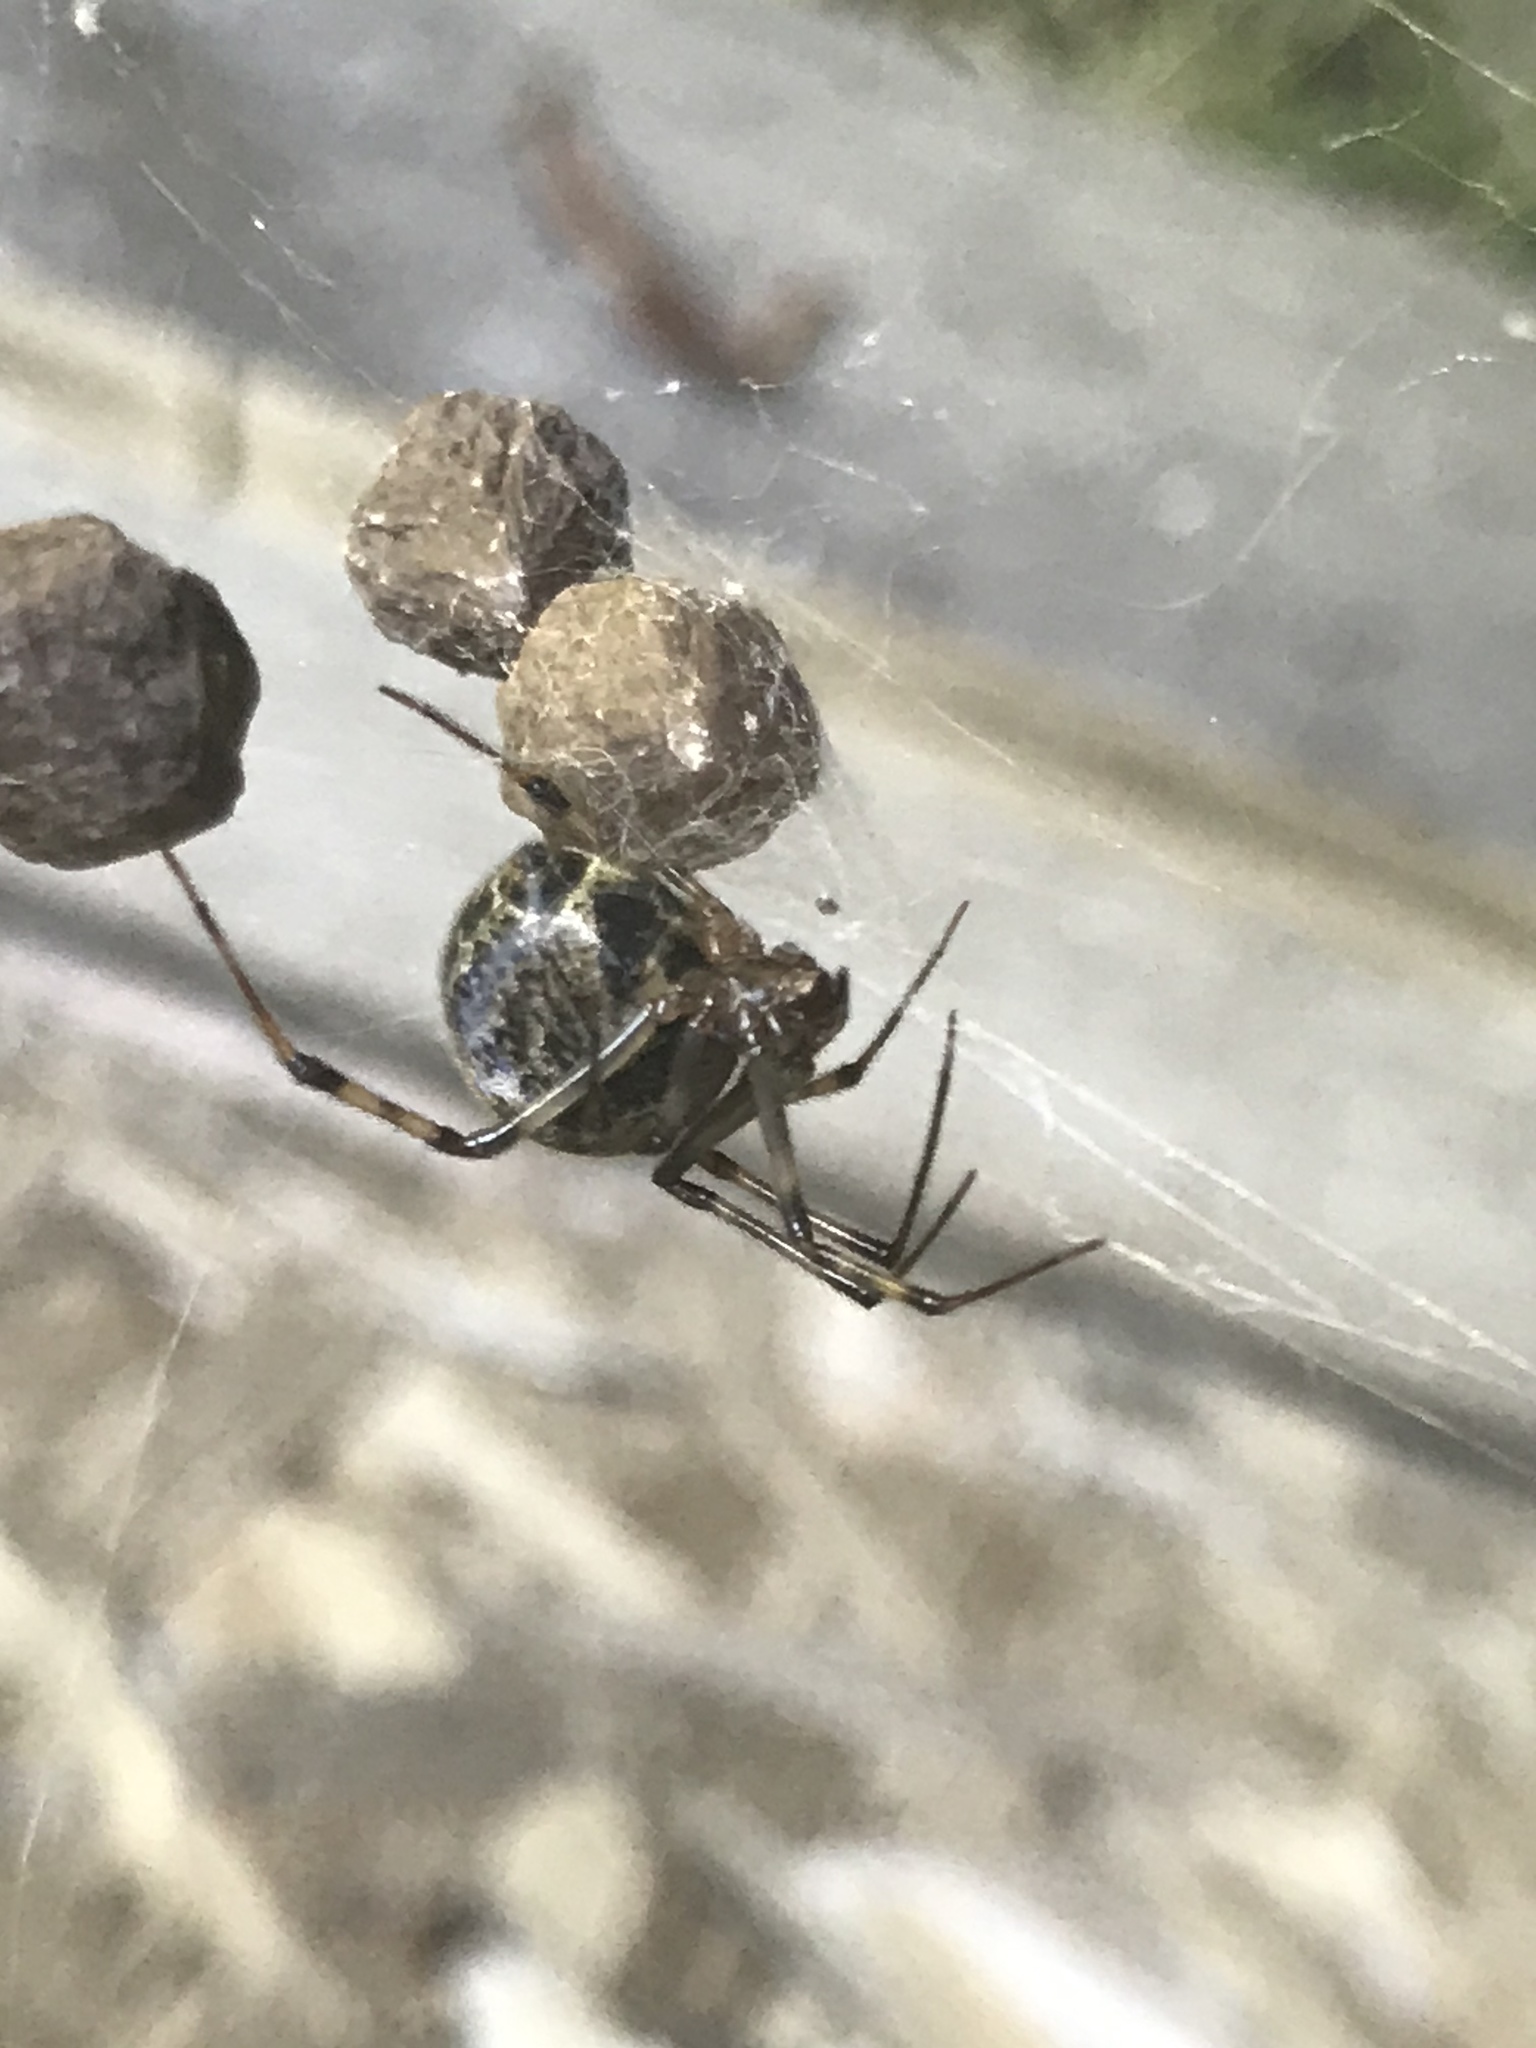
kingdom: Animalia
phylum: Arthropoda
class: Arachnida
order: Araneae
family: Theridiidae
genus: Parasteatoda
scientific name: Parasteatoda tepidariorum
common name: Common house spider
